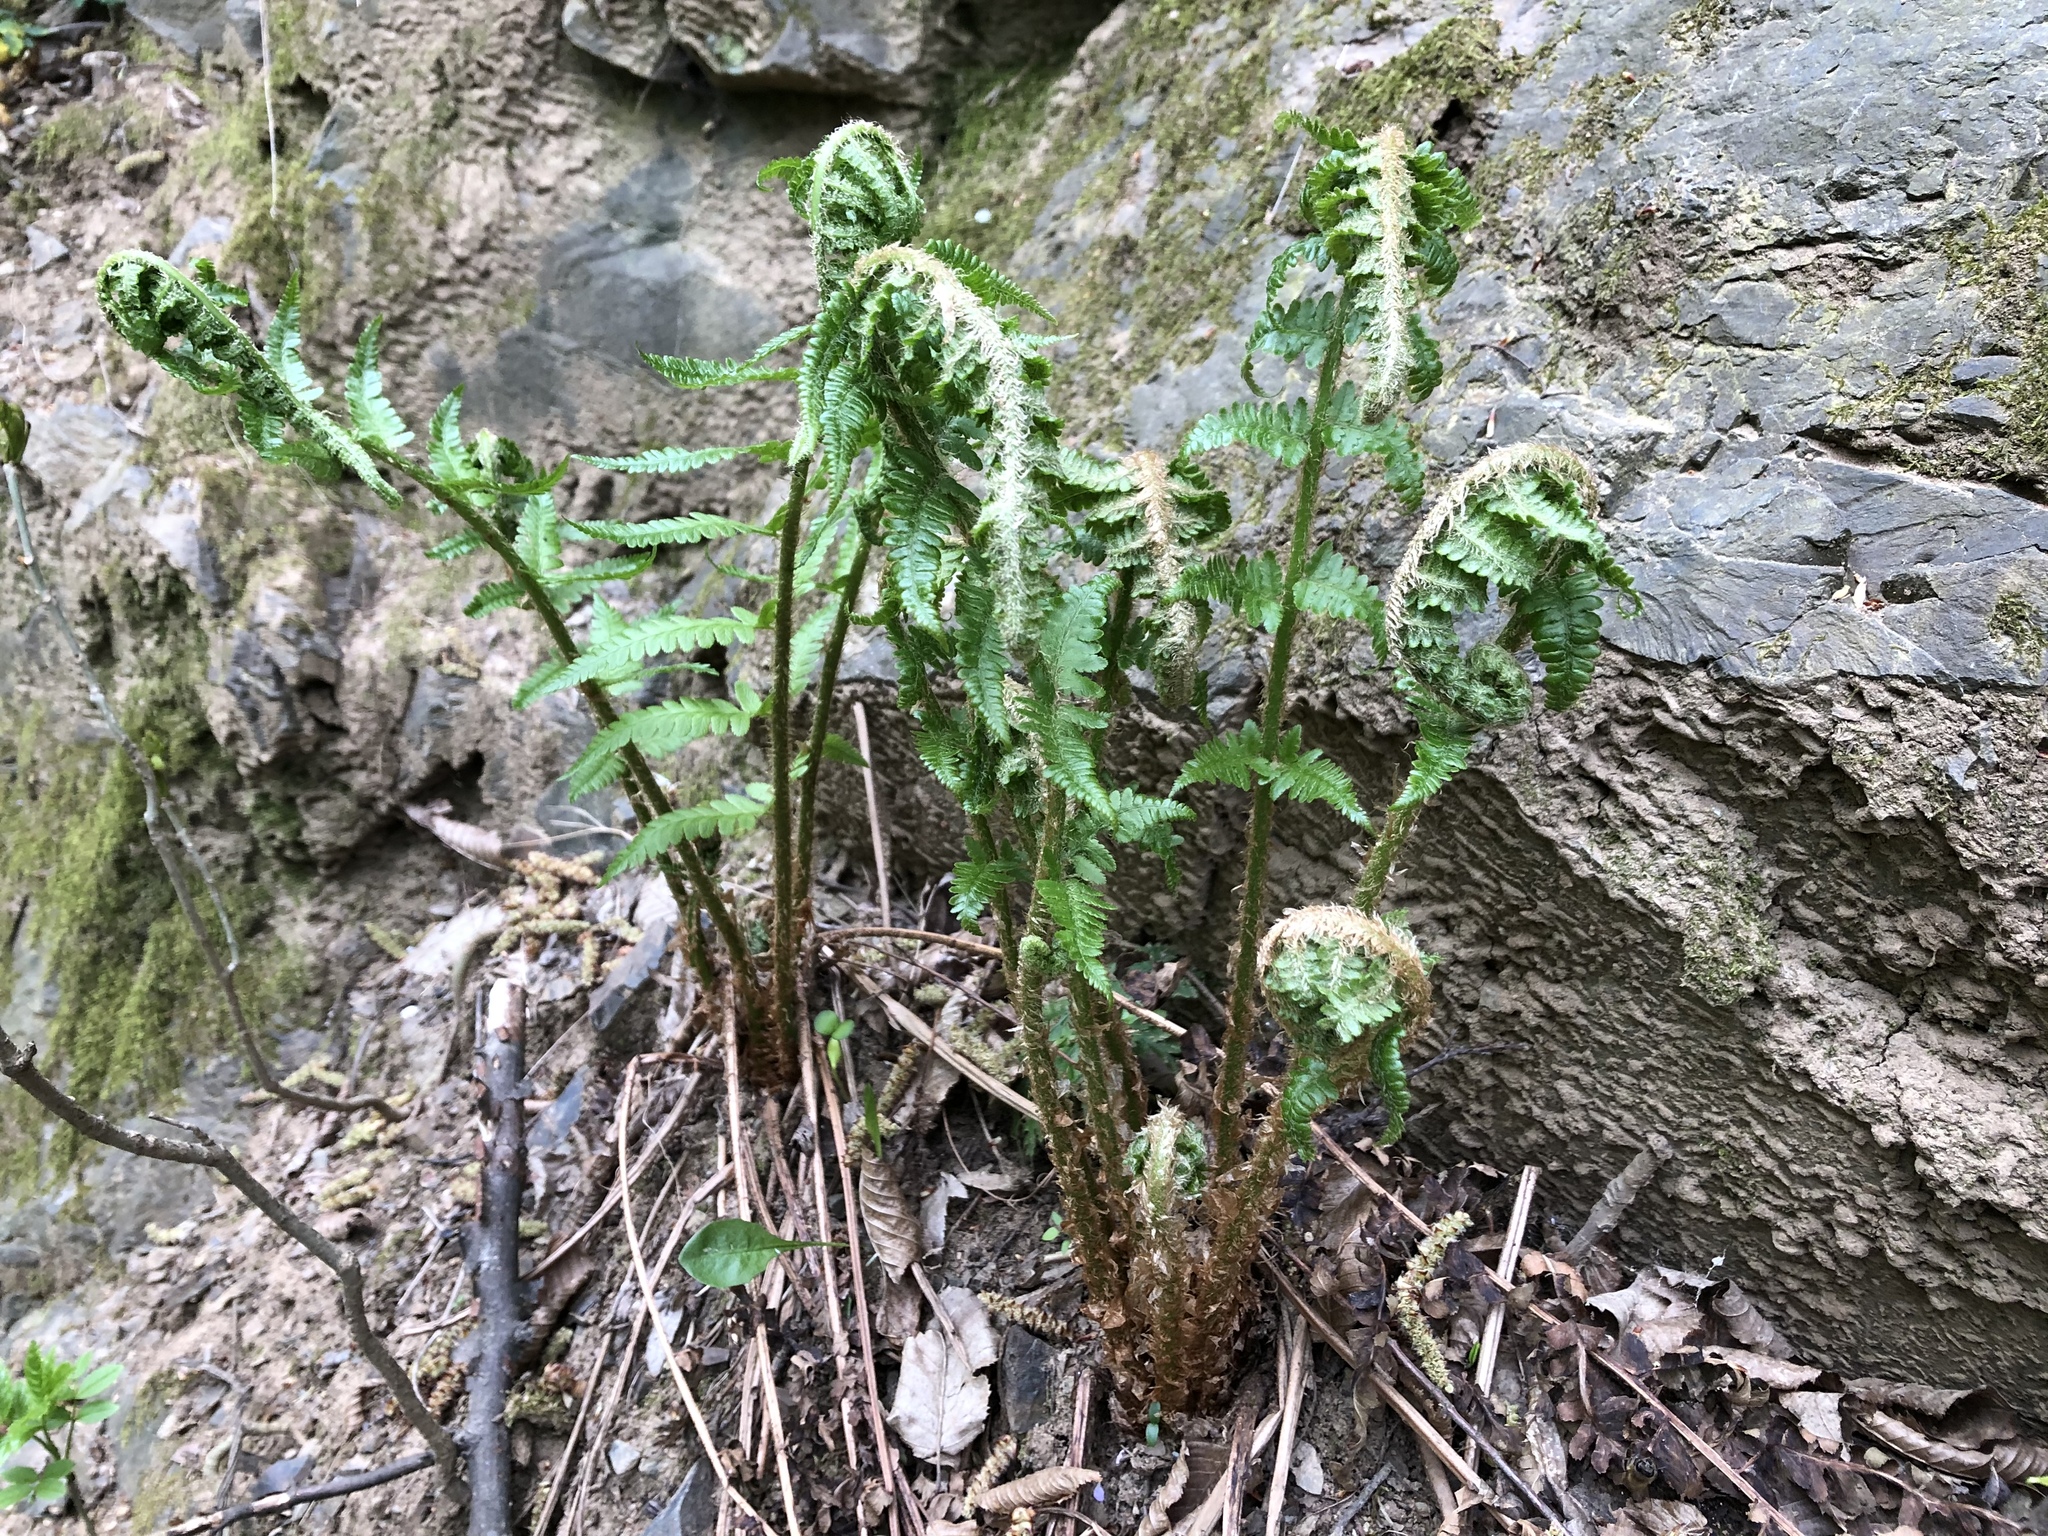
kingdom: Plantae
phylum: Tracheophyta
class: Polypodiopsida
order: Polypodiales
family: Dryopteridaceae
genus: Dryopteris
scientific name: Dryopteris filix-mas
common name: Male fern
